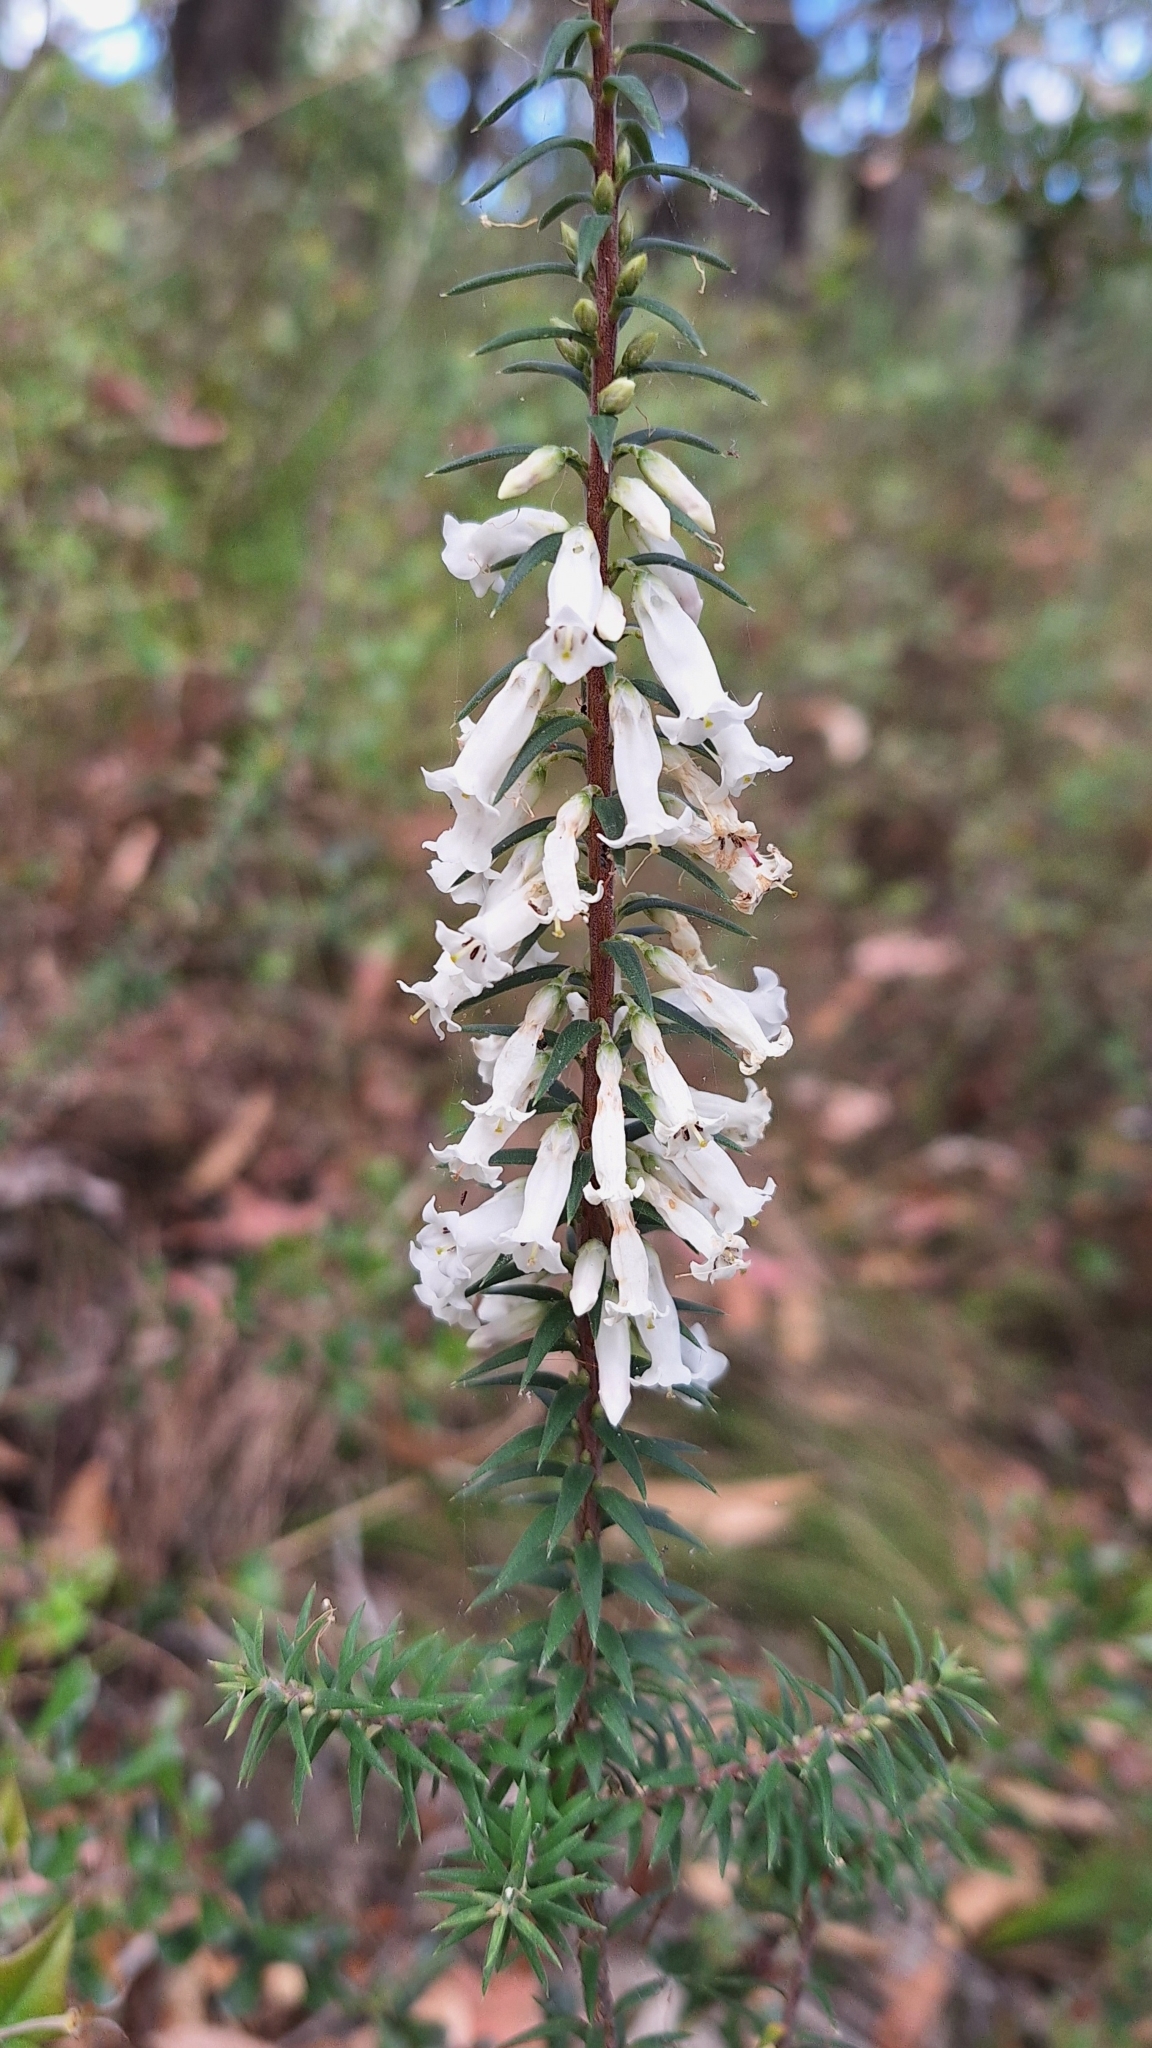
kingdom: Plantae
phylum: Tracheophyta
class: Magnoliopsida
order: Ericales
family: Ericaceae
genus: Epacris
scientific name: Epacris impressa
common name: Common-heath
